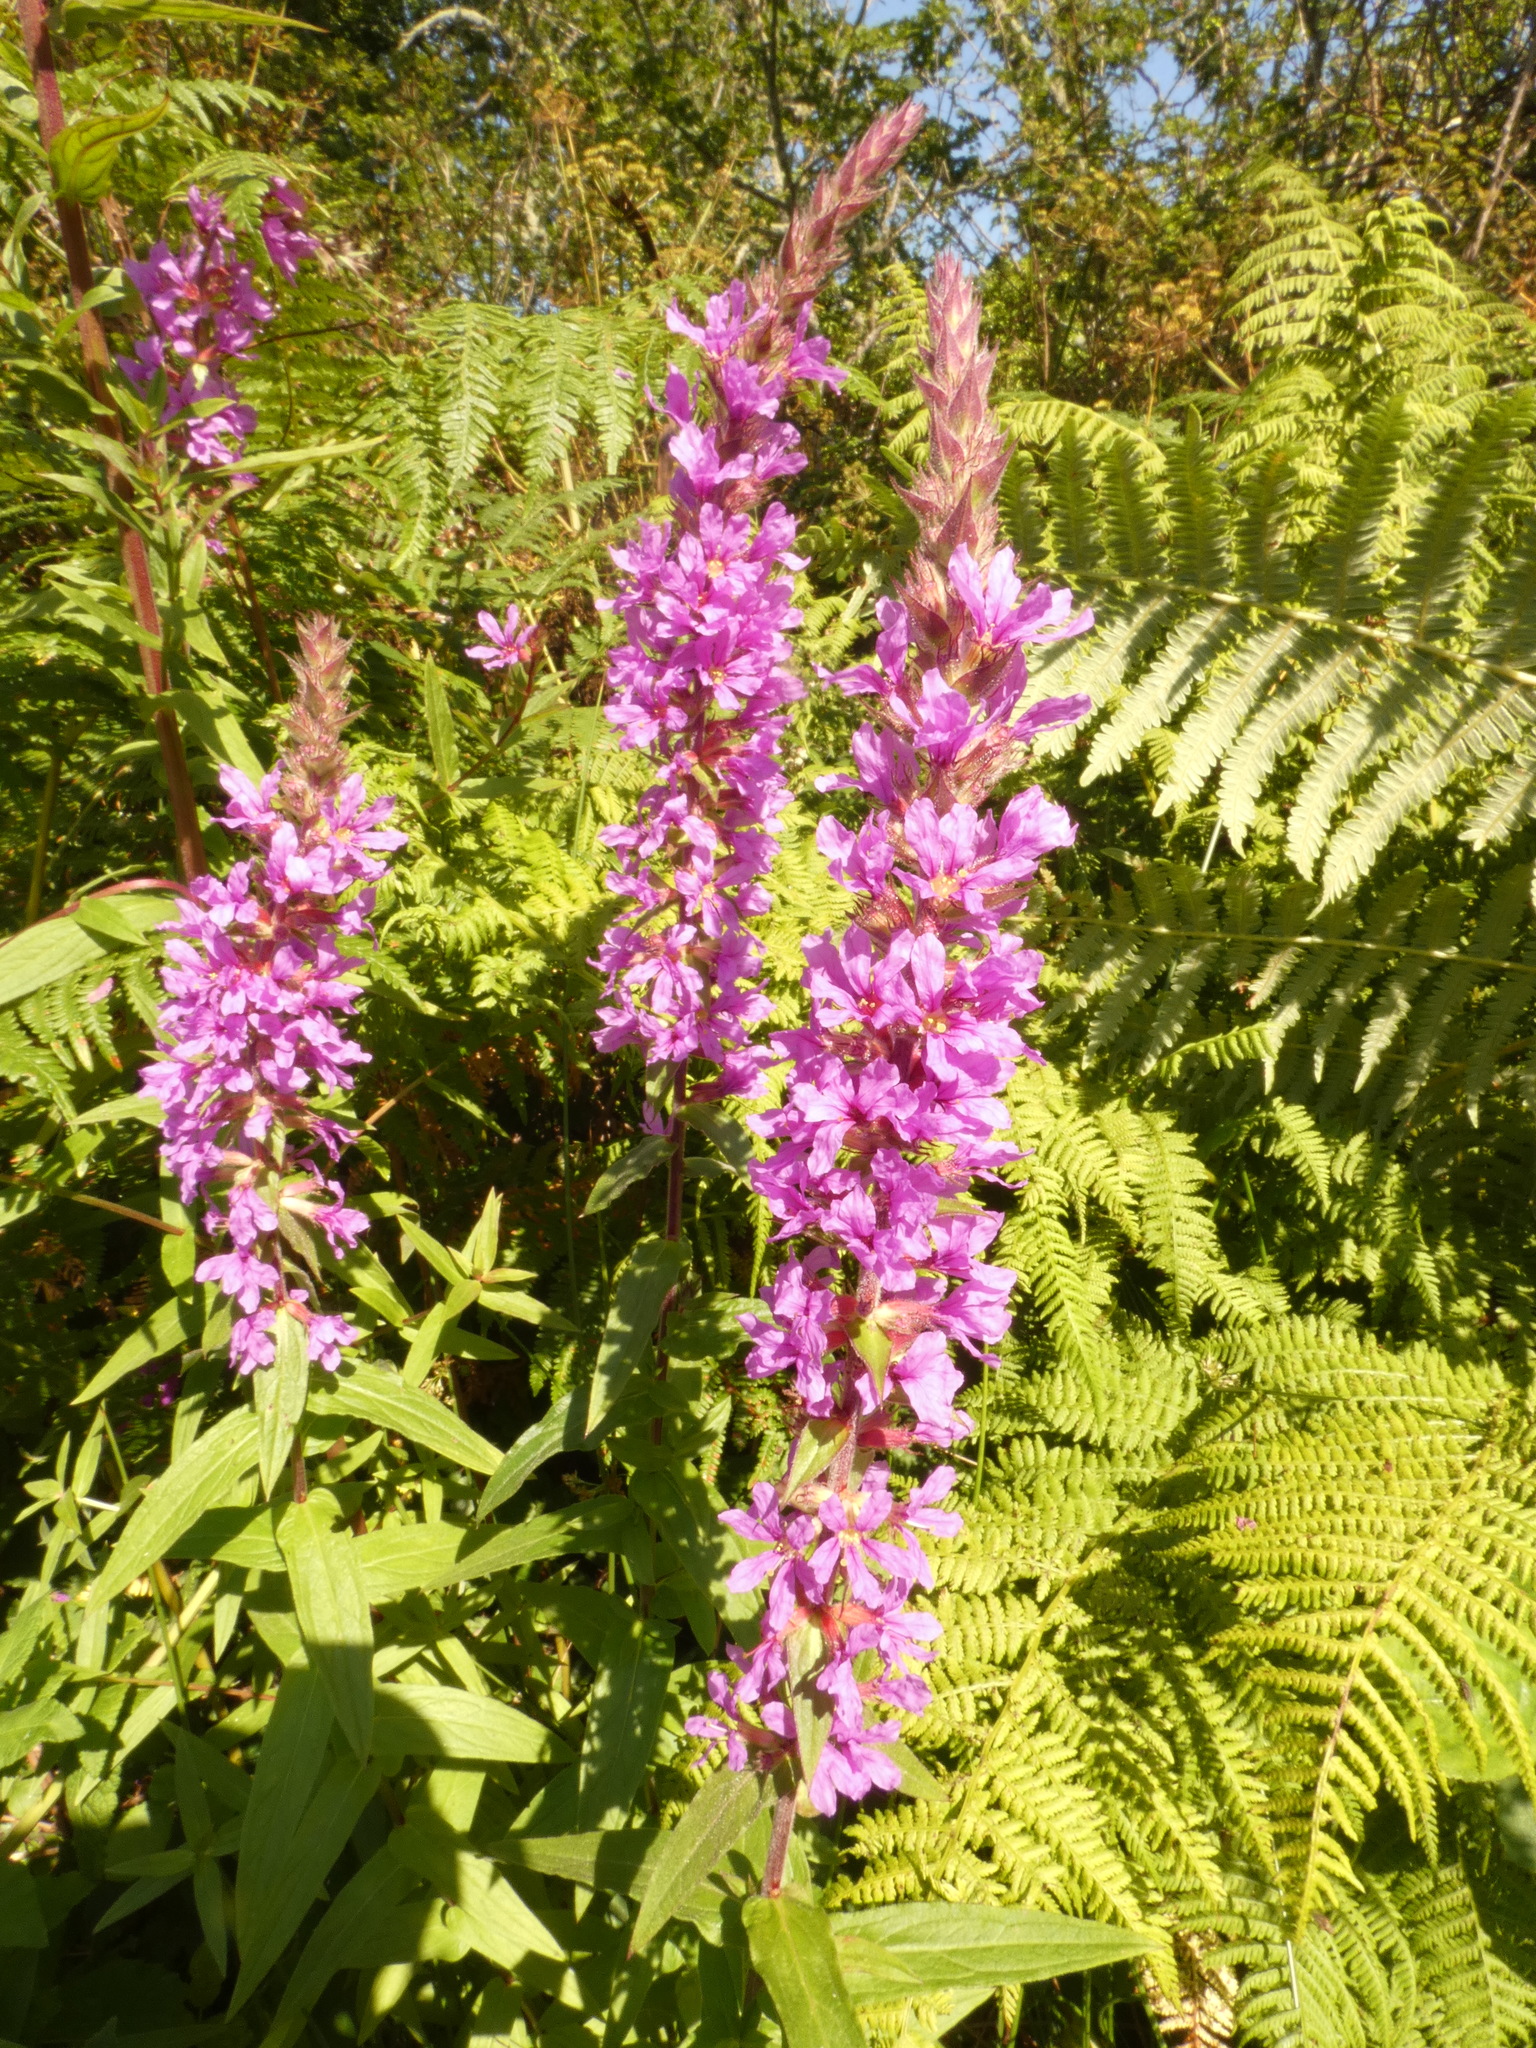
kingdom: Plantae
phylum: Tracheophyta
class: Magnoliopsida
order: Myrtales
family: Lythraceae
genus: Lythrum
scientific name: Lythrum salicaria
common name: Purple loosestrife
